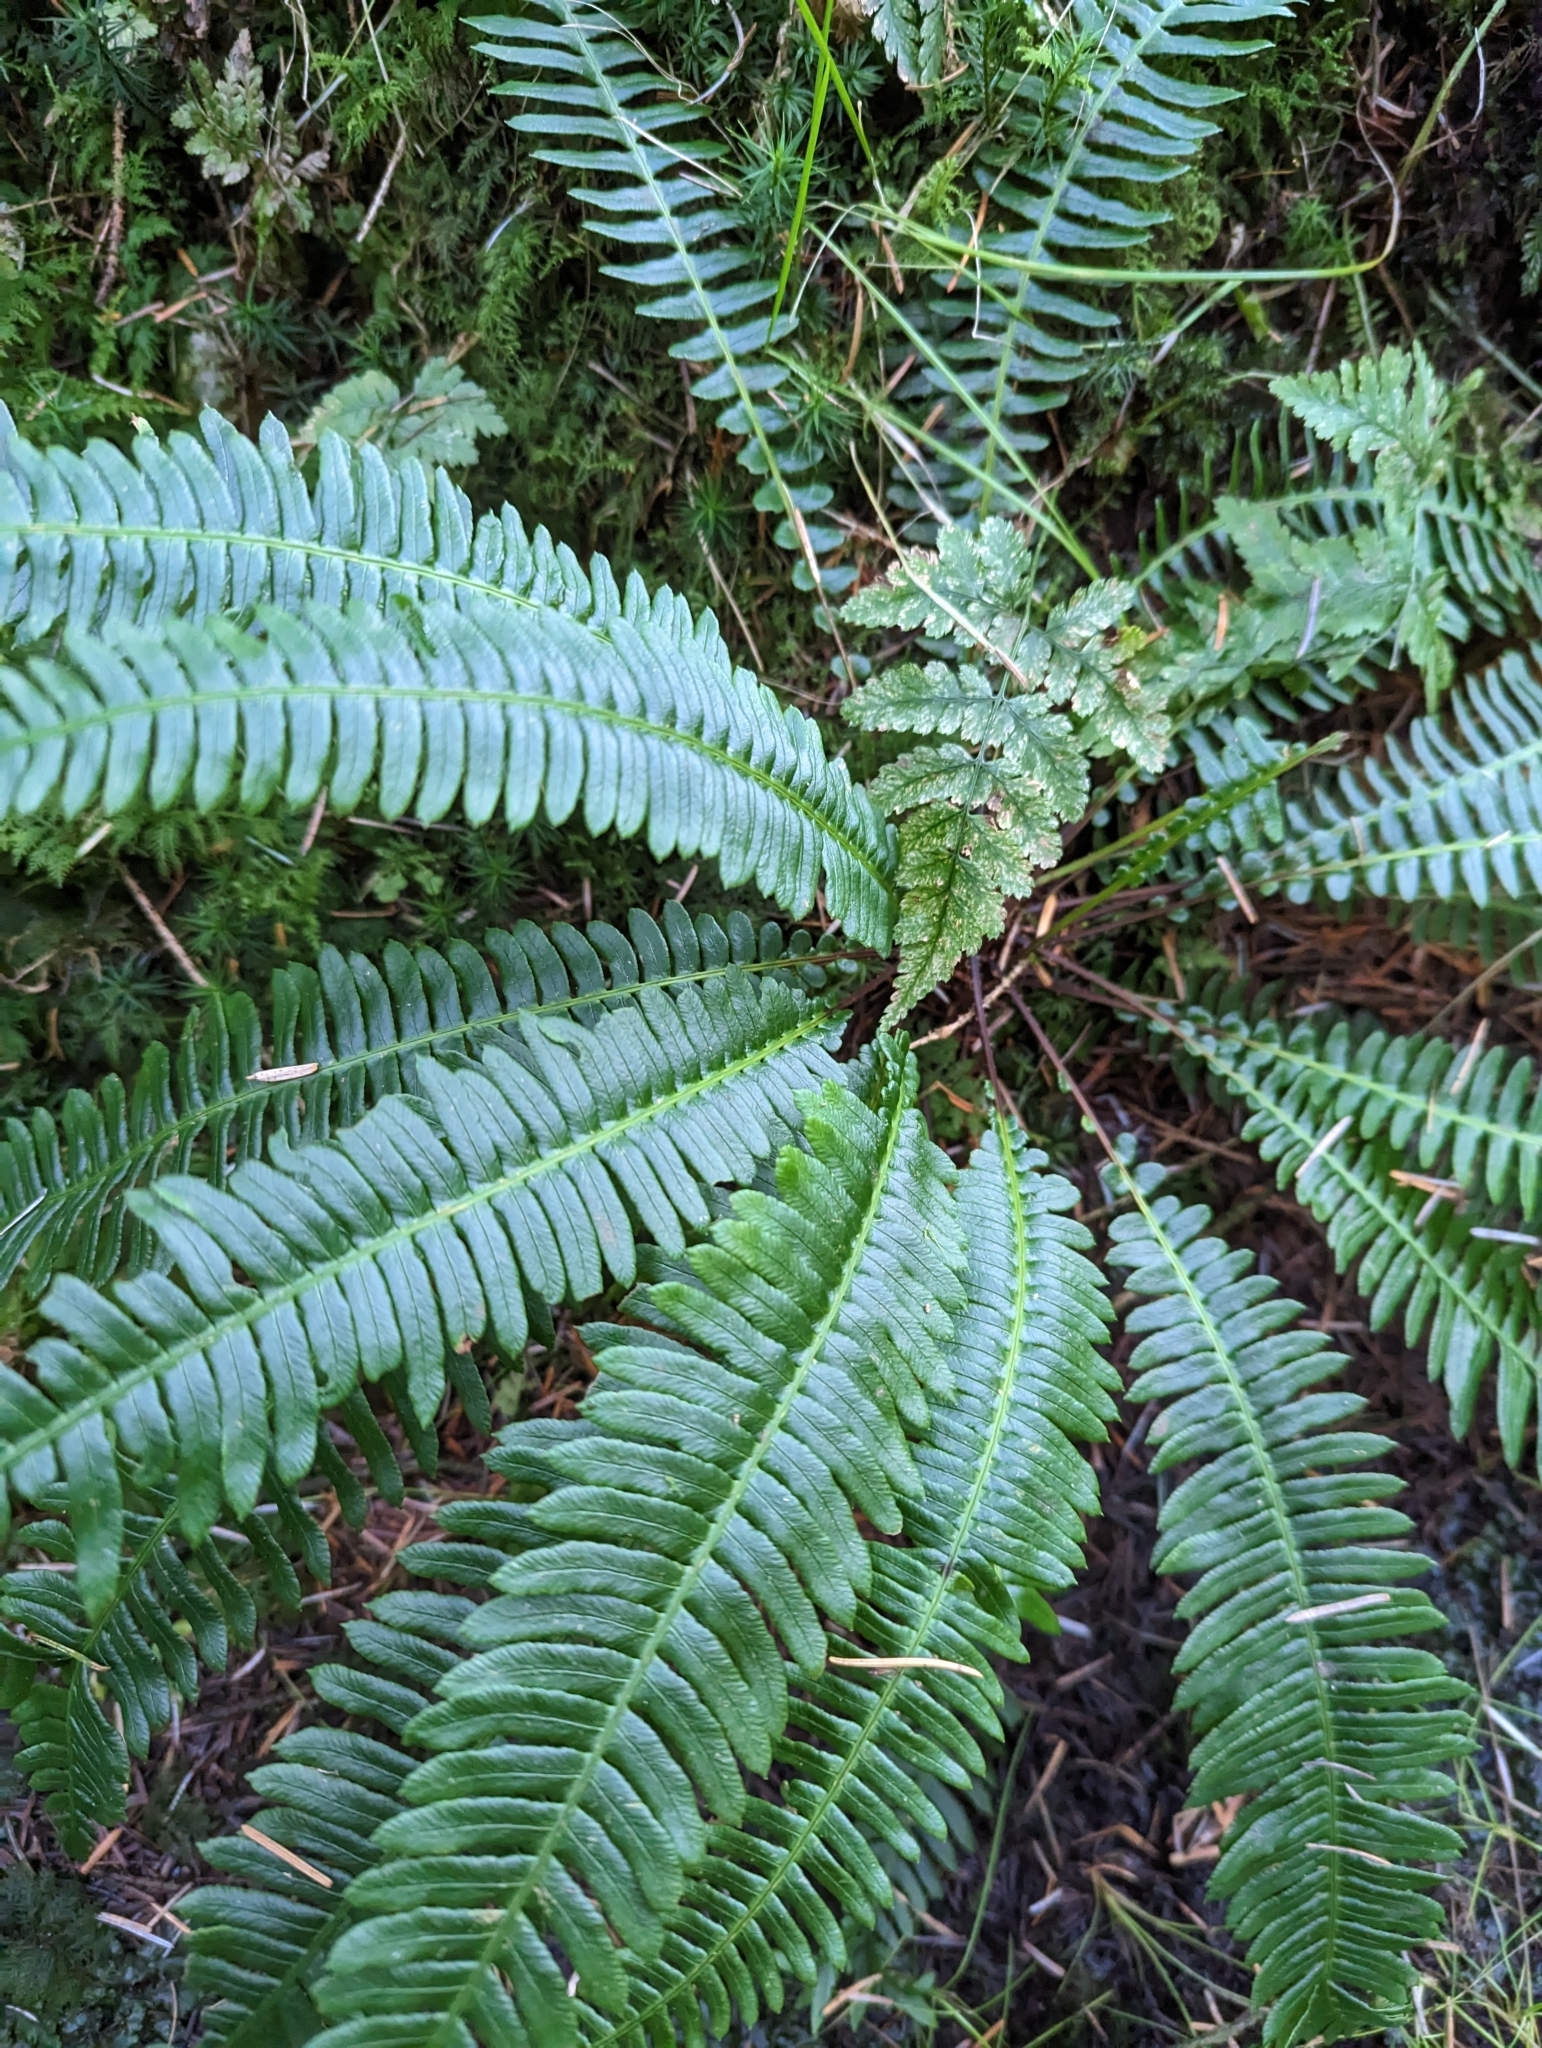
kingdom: Plantae
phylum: Tracheophyta
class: Polypodiopsida
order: Polypodiales
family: Blechnaceae
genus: Struthiopteris
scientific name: Struthiopteris spicant
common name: Deer fern
